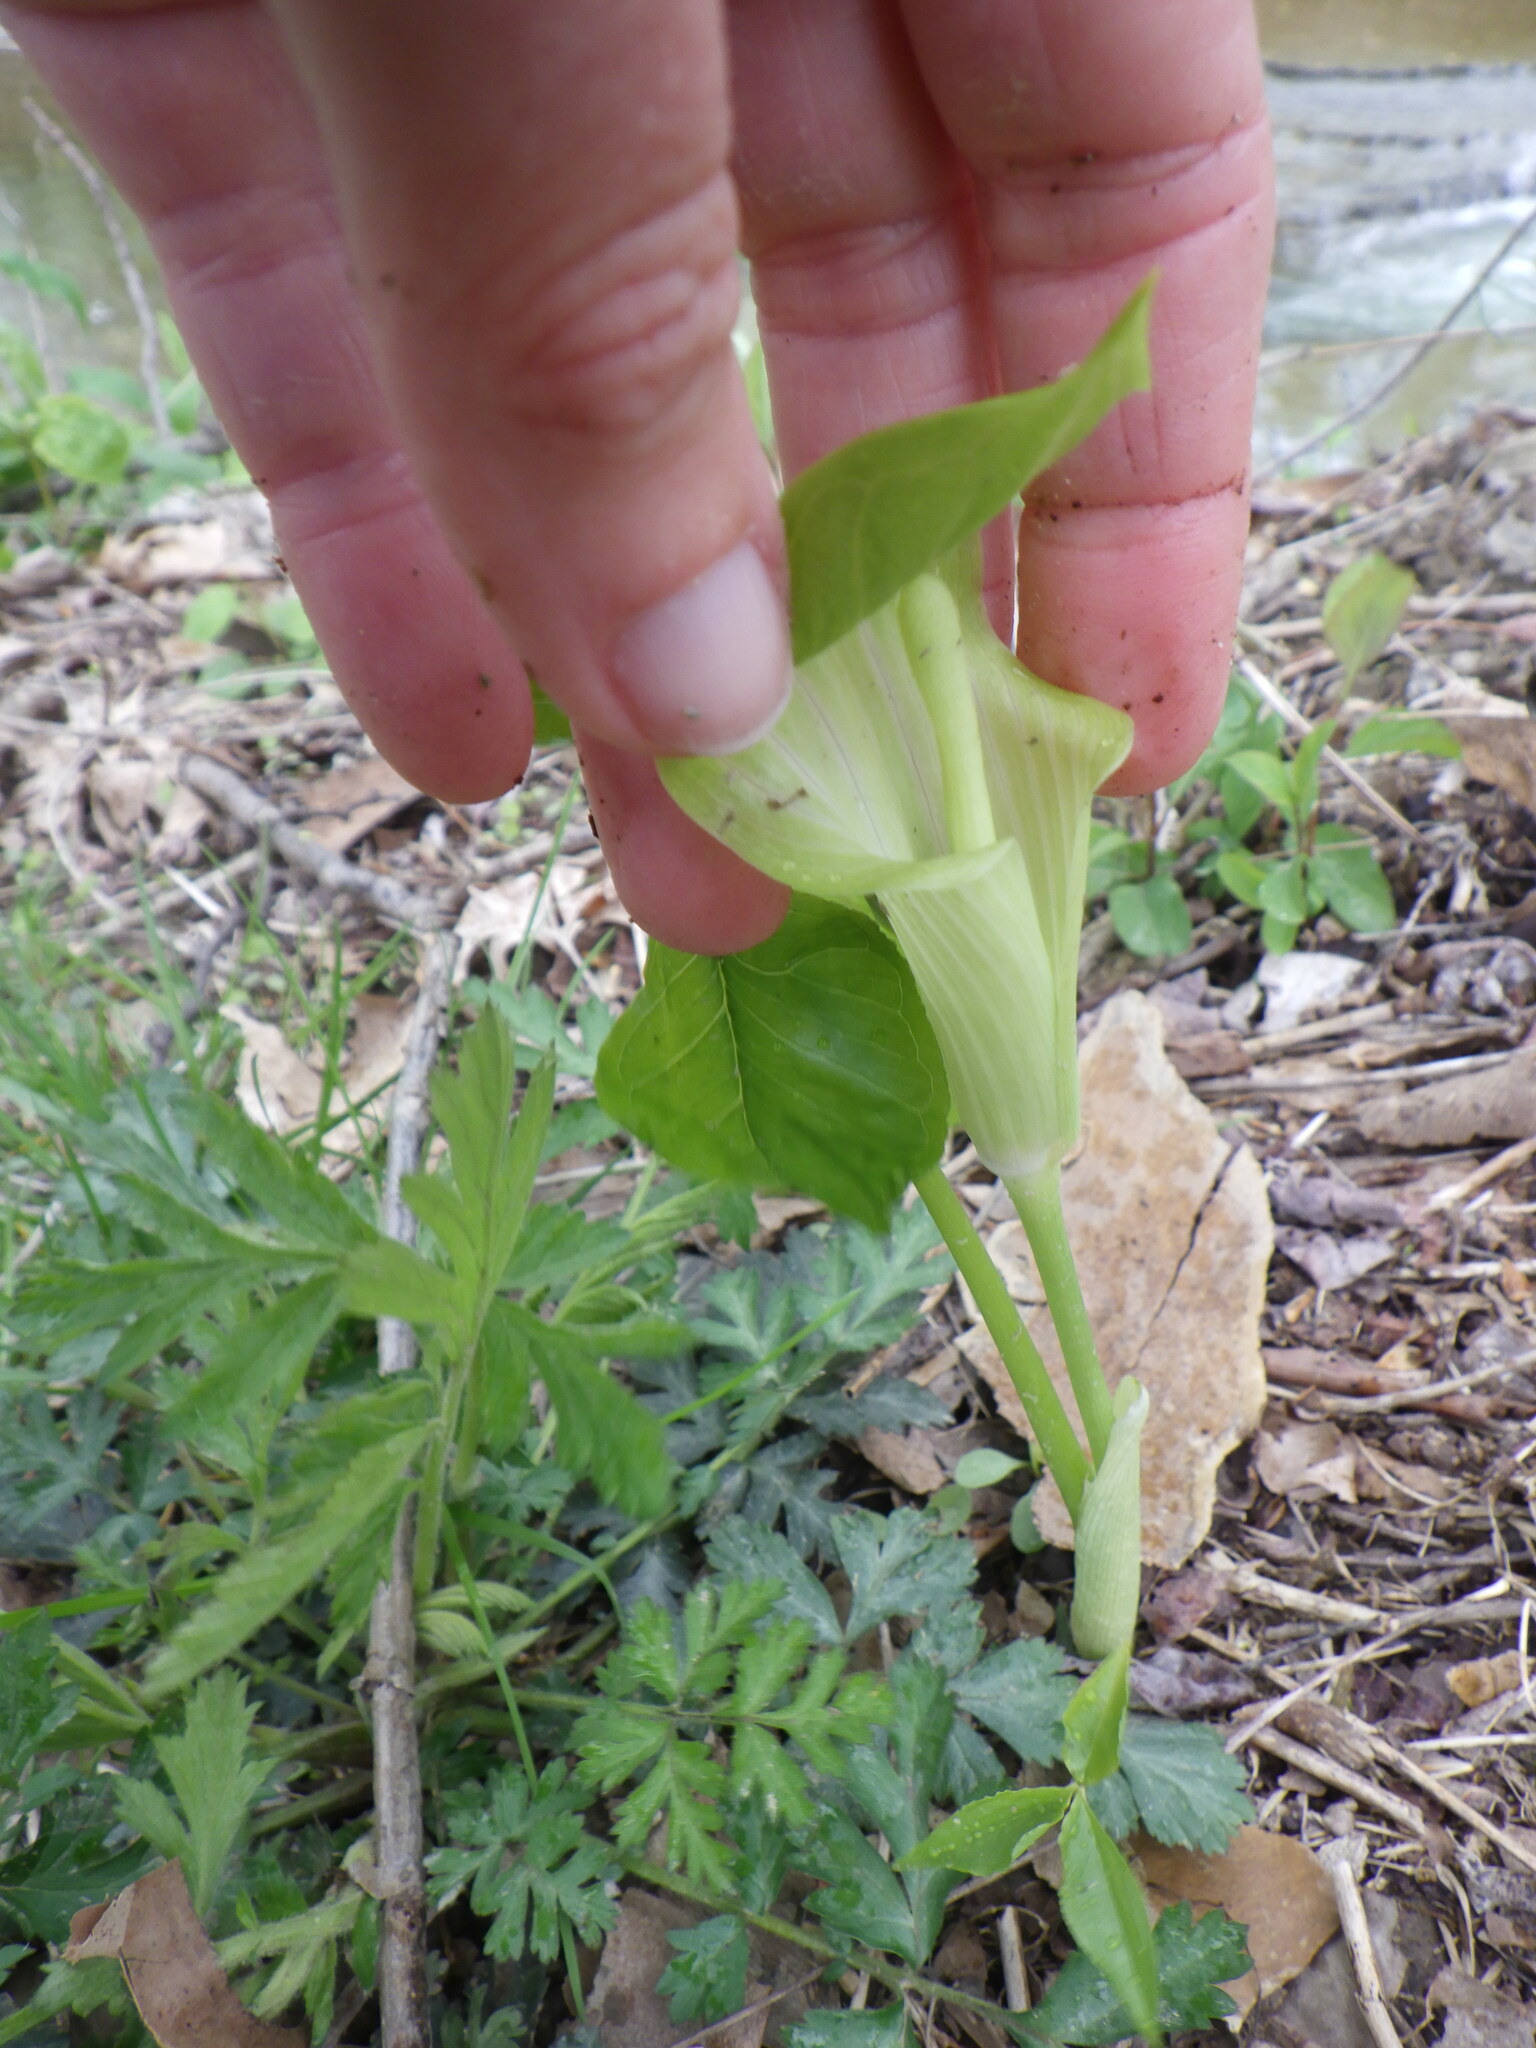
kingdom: Plantae
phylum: Tracheophyta
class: Liliopsida
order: Alismatales
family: Araceae
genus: Arisaema
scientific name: Arisaema triphyllum
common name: Jack-in-the-pulpit
